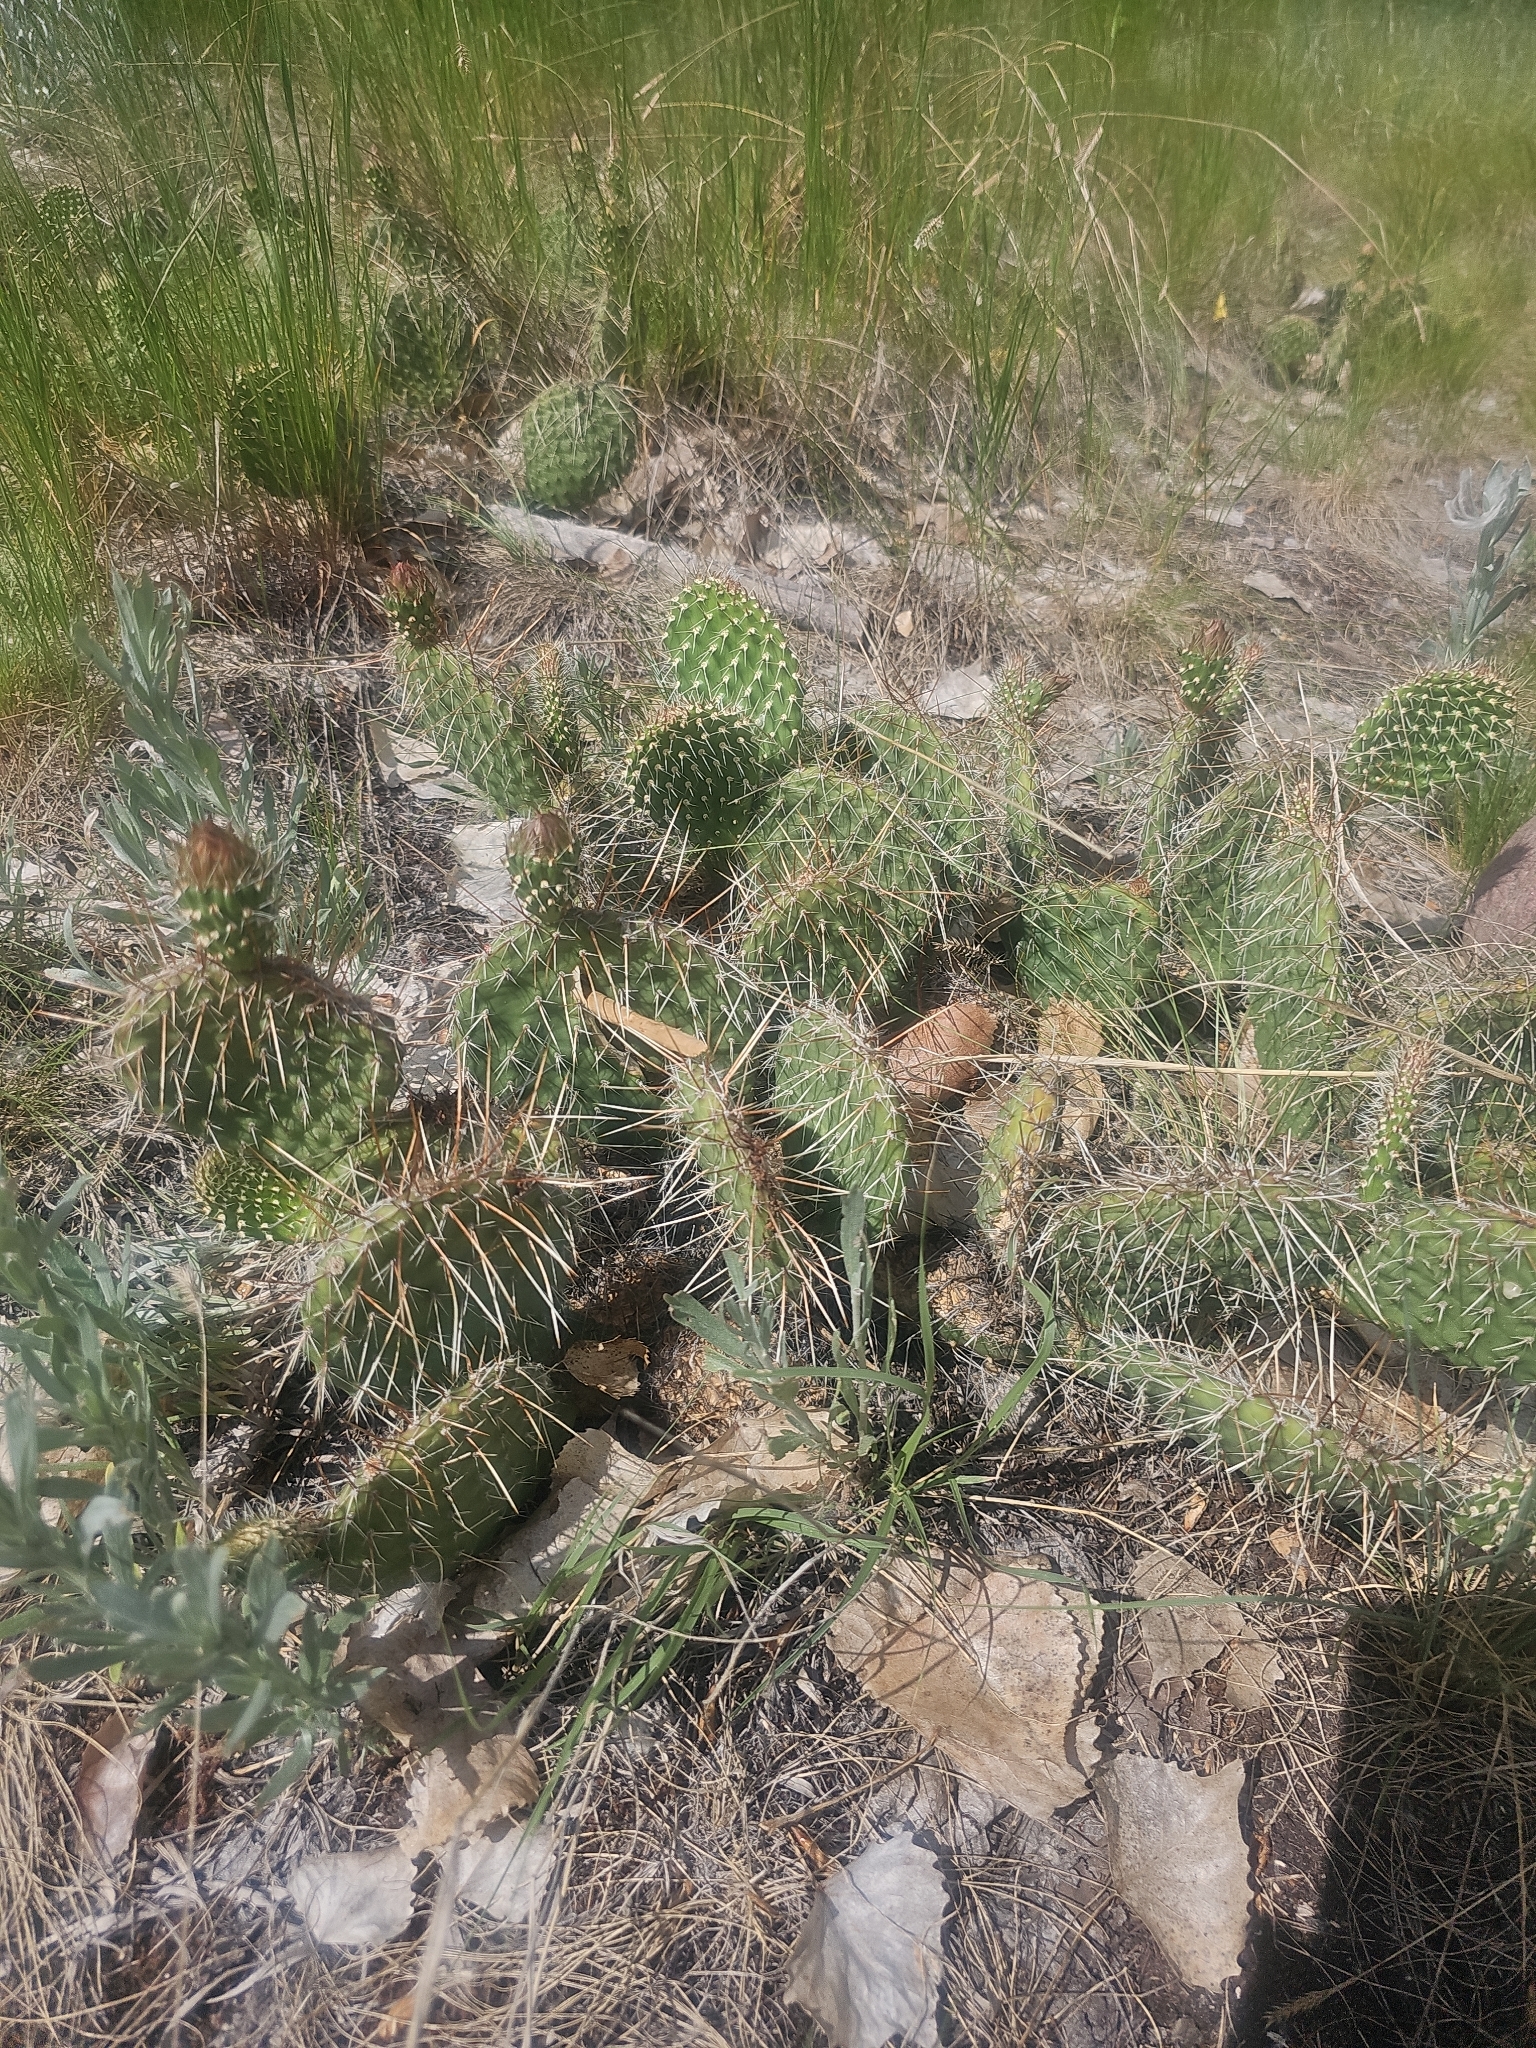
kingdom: Plantae
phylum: Tracheophyta
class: Magnoliopsida
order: Caryophyllales
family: Cactaceae
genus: Opuntia
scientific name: Opuntia polyacantha
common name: Plains prickly-pear
